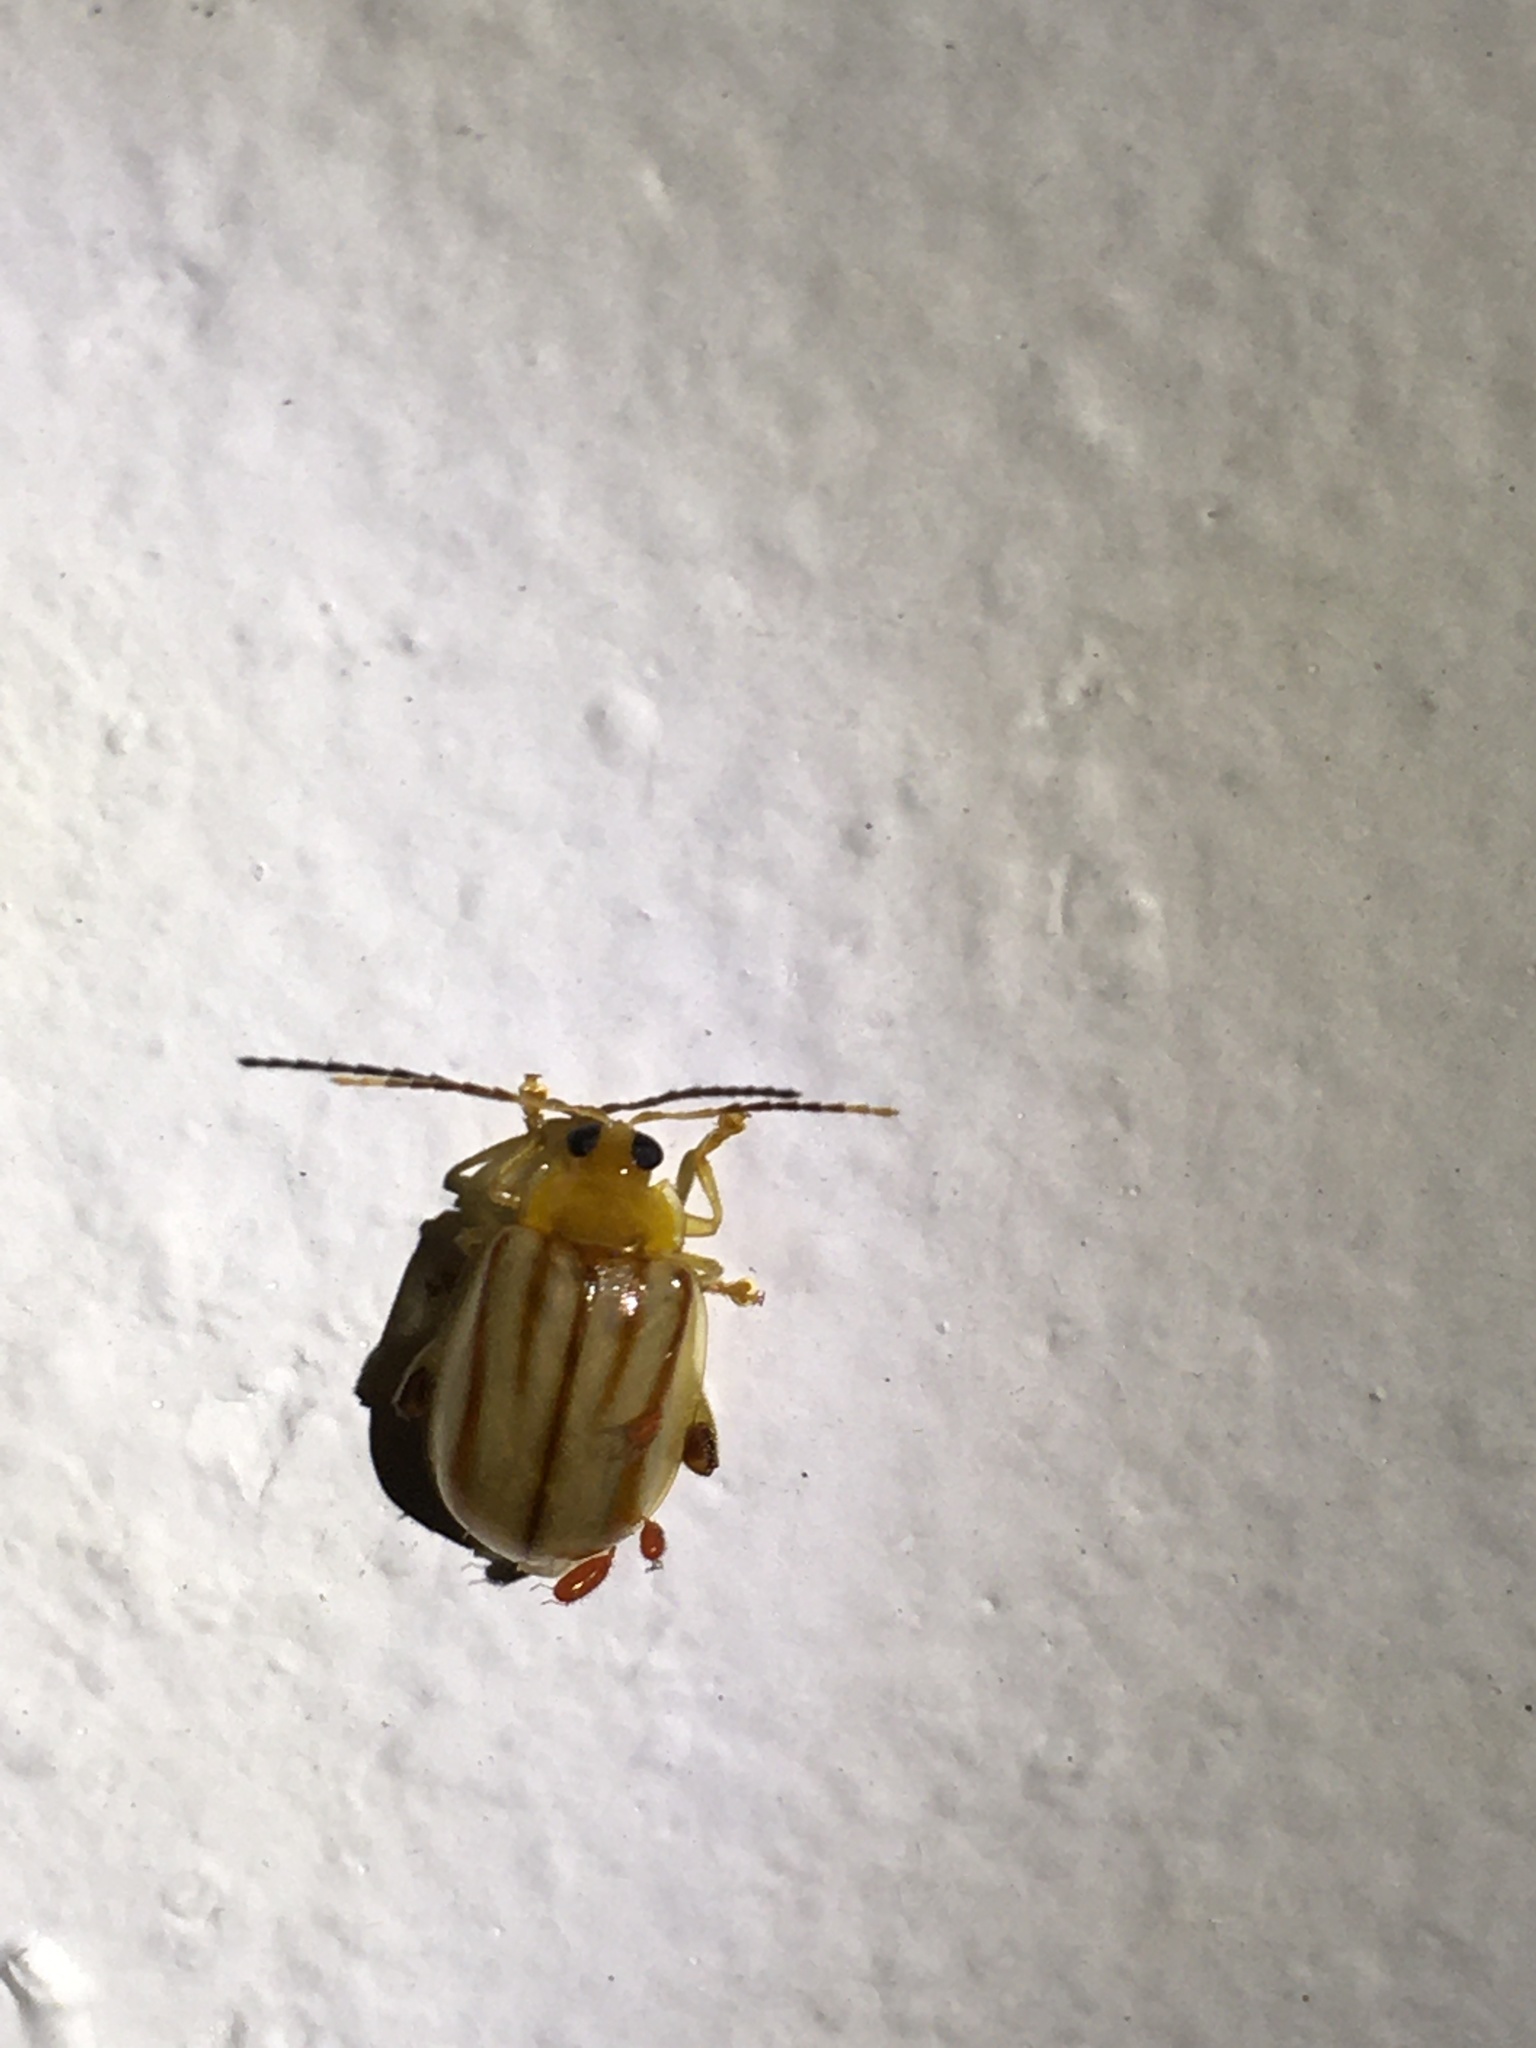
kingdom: Animalia
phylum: Arthropoda
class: Insecta
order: Coleoptera
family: Chrysomelidae
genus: Walterianella
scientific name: Walterianella
